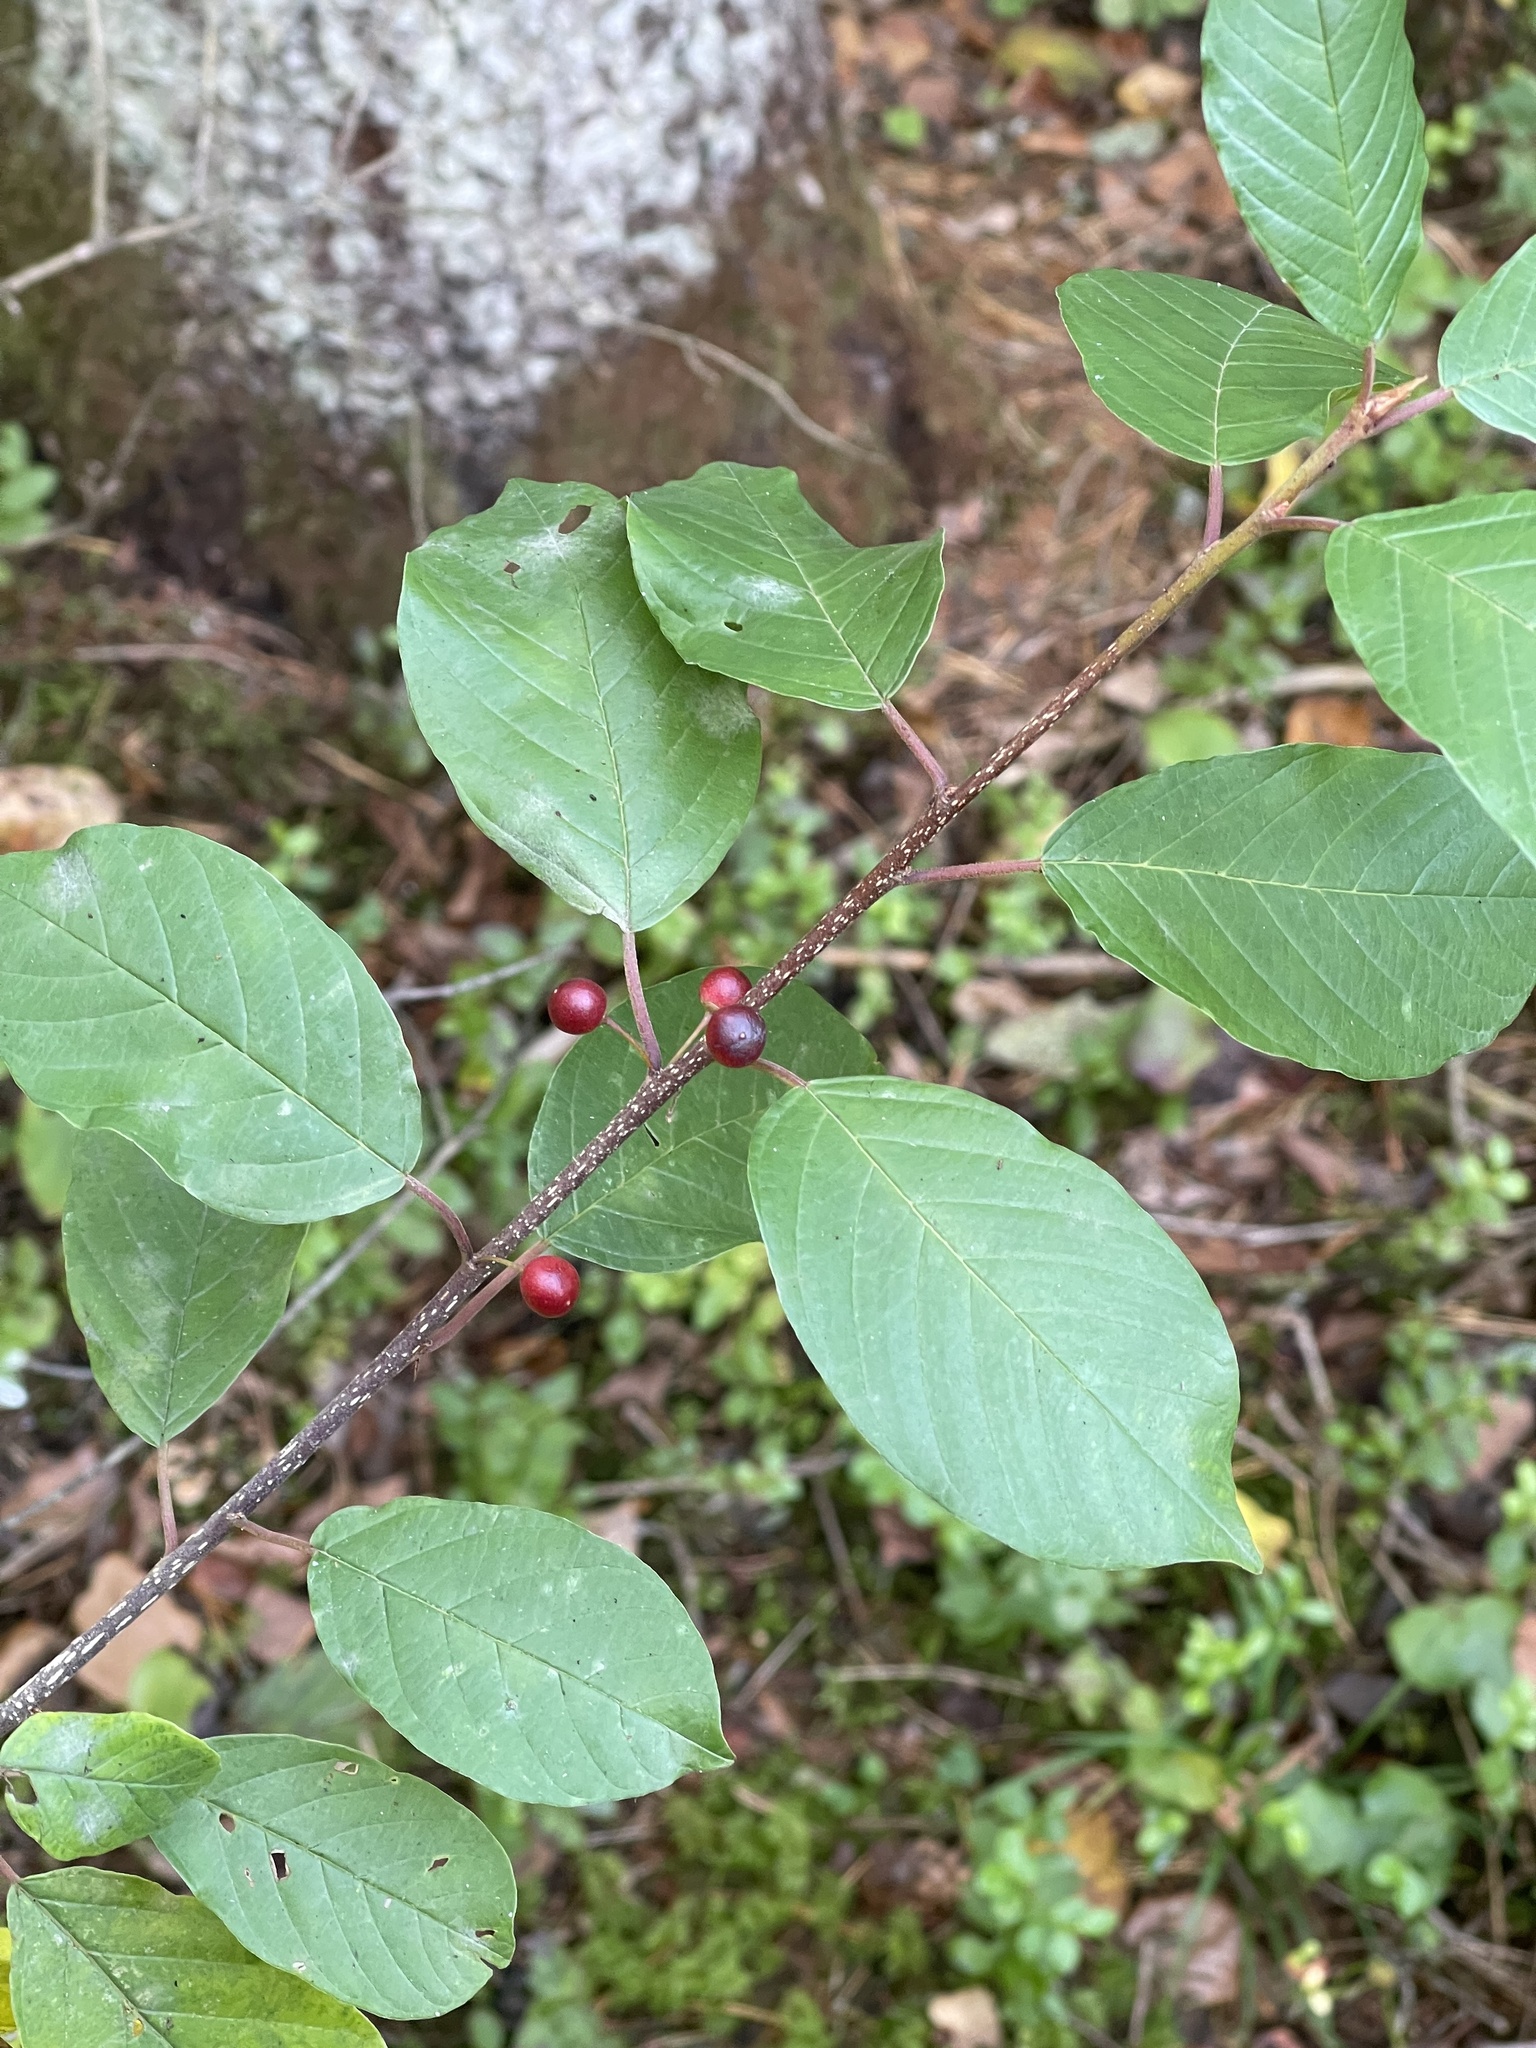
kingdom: Plantae
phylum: Tracheophyta
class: Magnoliopsida
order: Rosales
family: Rhamnaceae
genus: Frangula
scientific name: Frangula alnus
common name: Alder buckthorn
